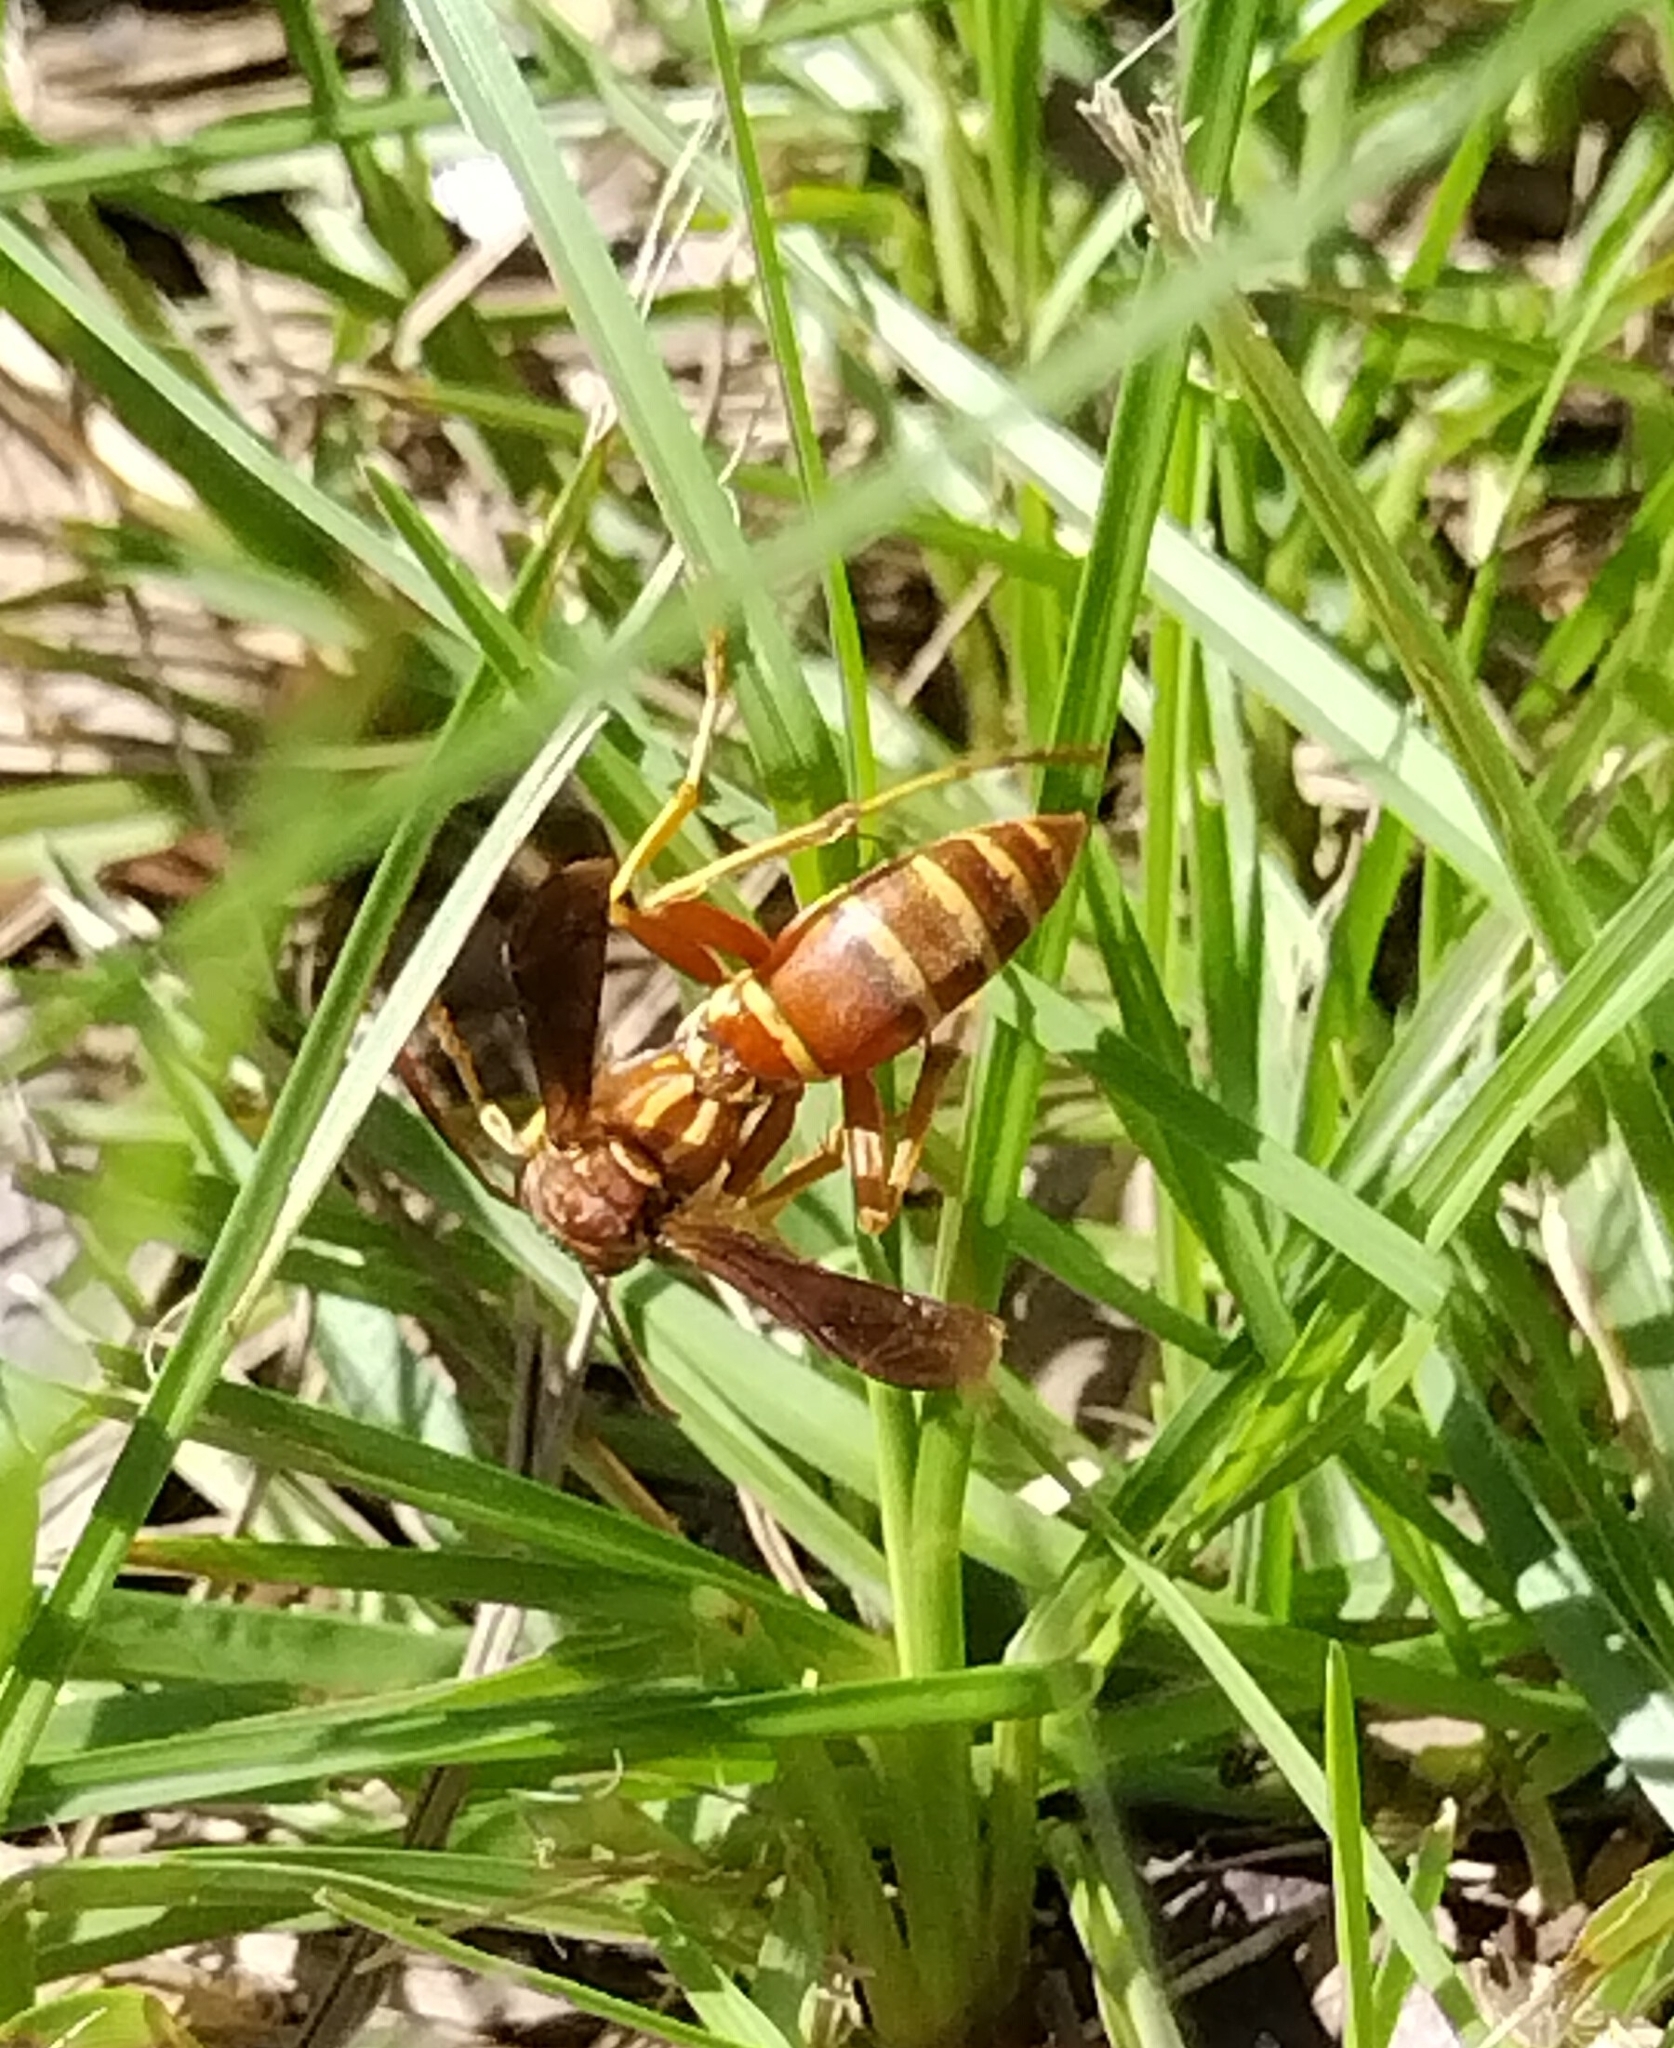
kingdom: Animalia
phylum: Arthropoda
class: Insecta
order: Hymenoptera
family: Eumenidae
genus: Polistes
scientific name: Polistes bellicosus
